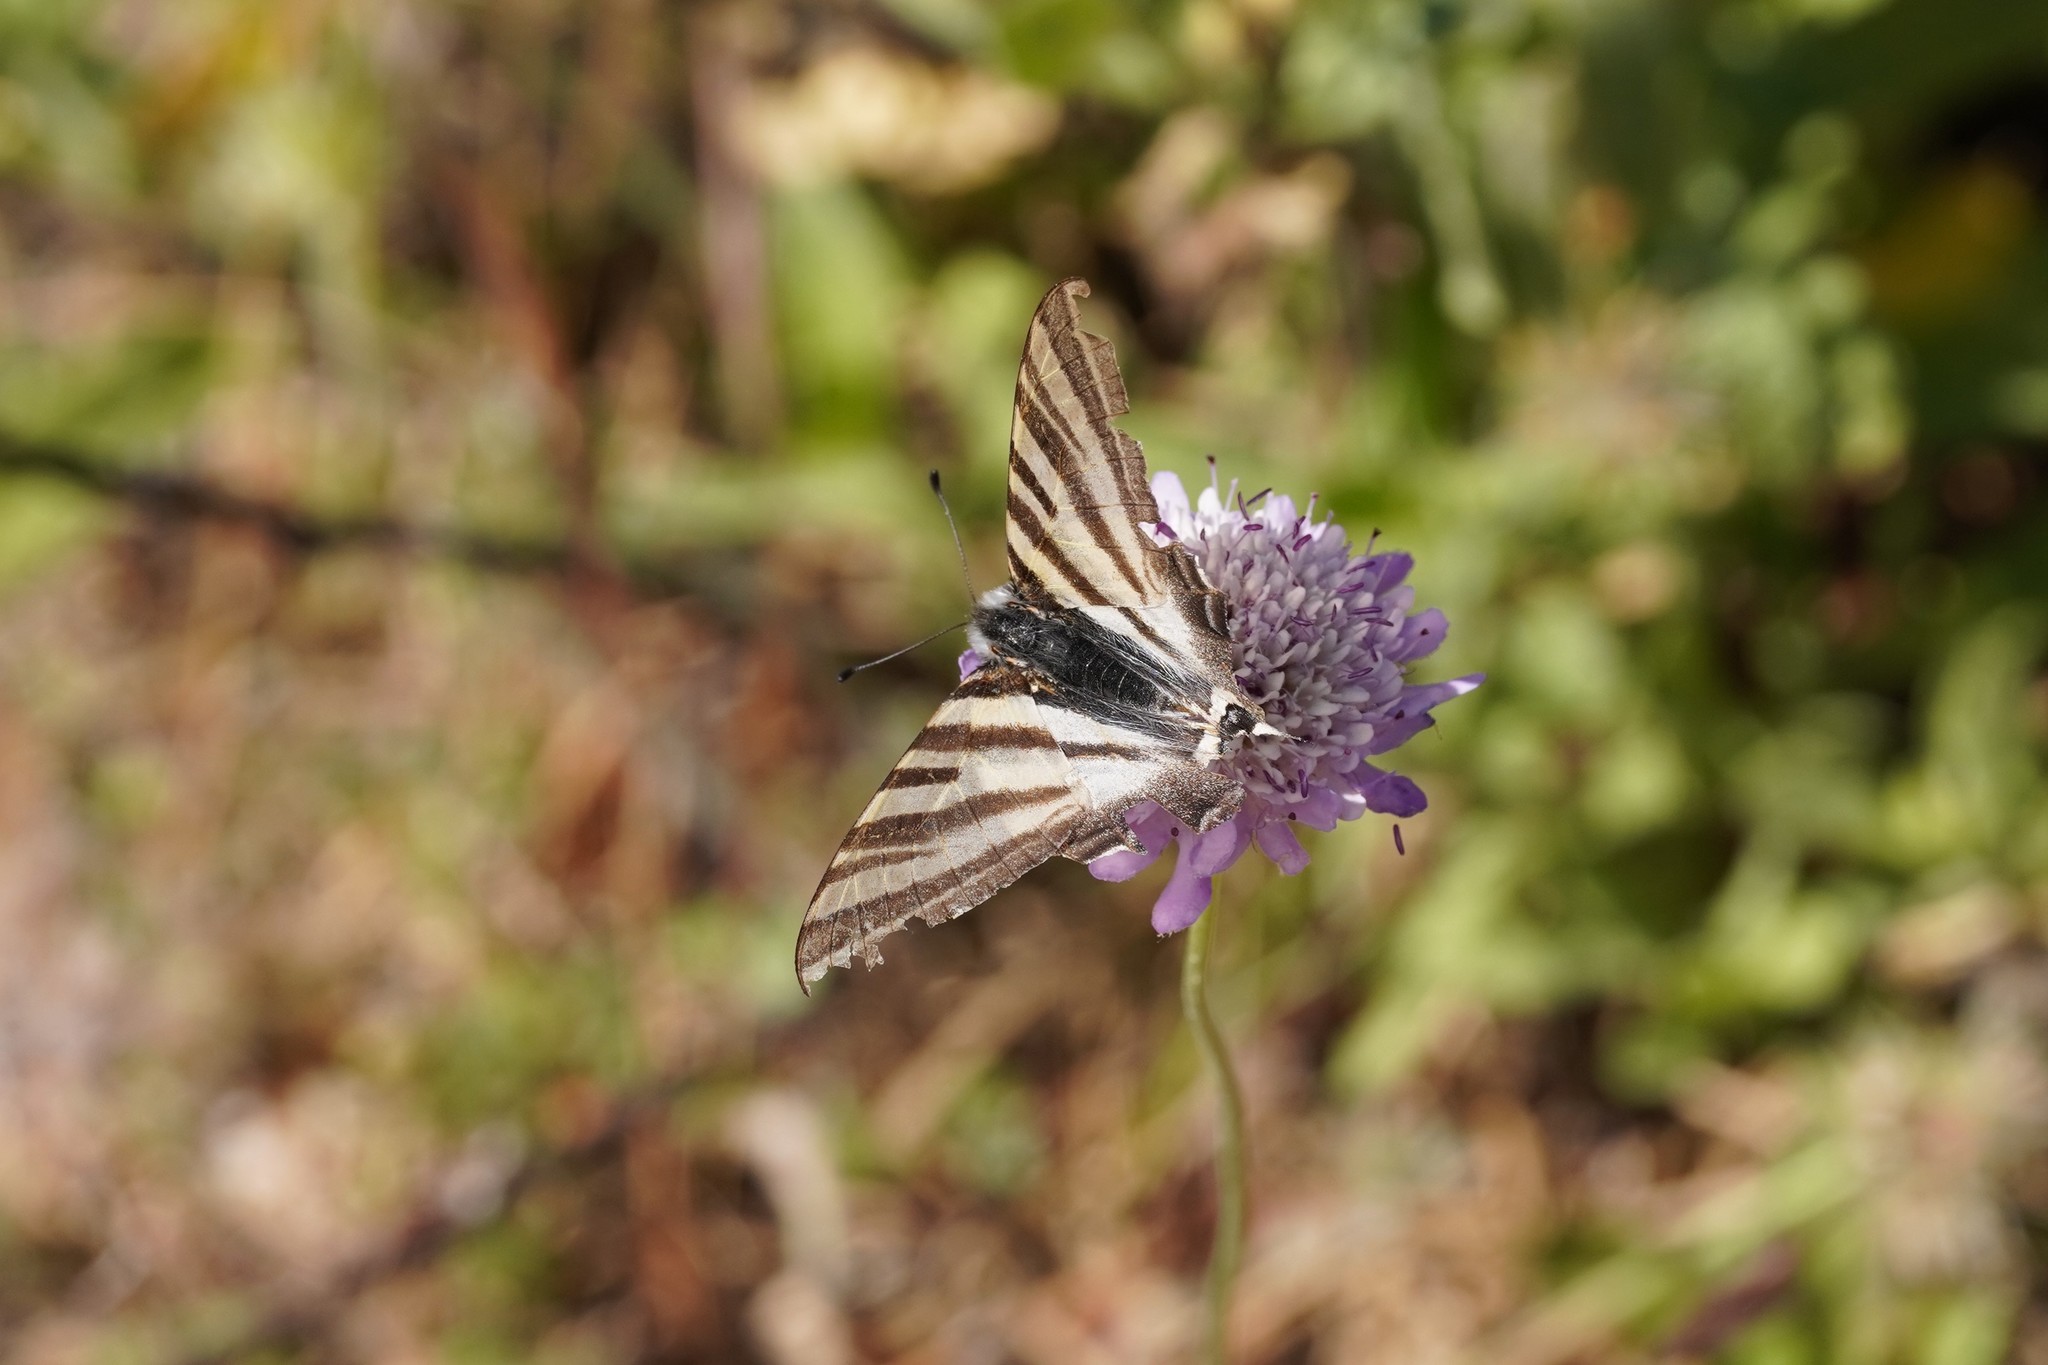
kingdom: Animalia
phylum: Arthropoda
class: Insecta
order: Lepidoptera
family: Papilionidae
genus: Iphiclides
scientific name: Iphiclides feisthamelii
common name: Iberian scarce swallowtail
